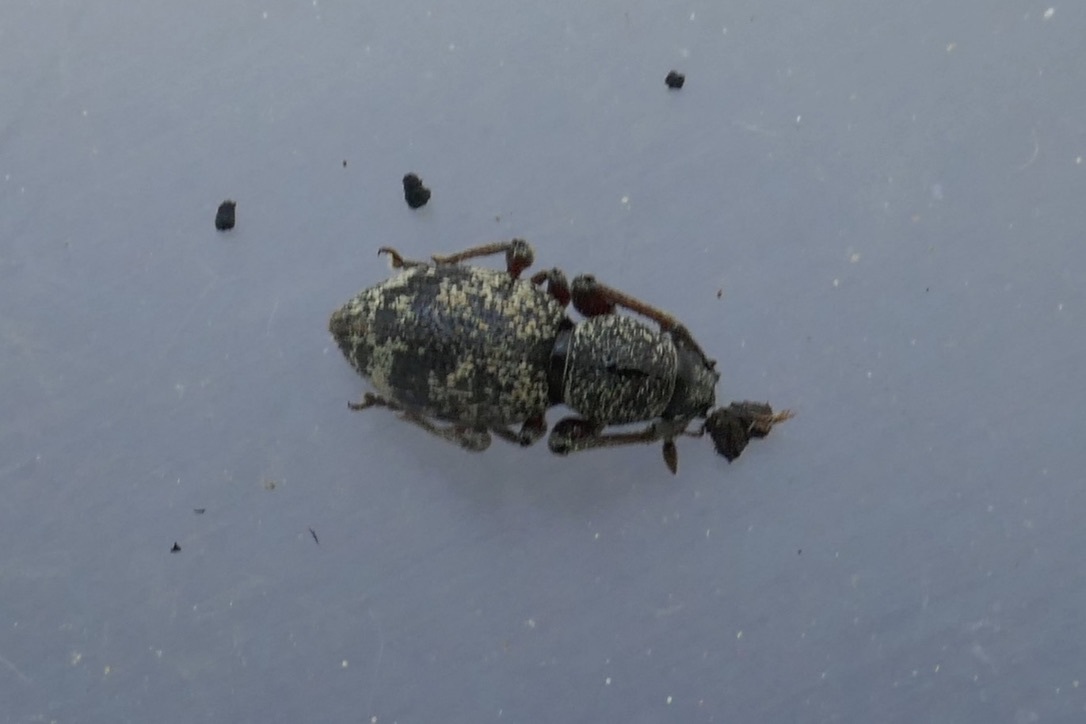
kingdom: Animalia
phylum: Arthropoda
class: Insecta
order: Coleoptera
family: Curculionidae
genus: Otiorhynchus
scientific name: Otiorhynchus fullo
